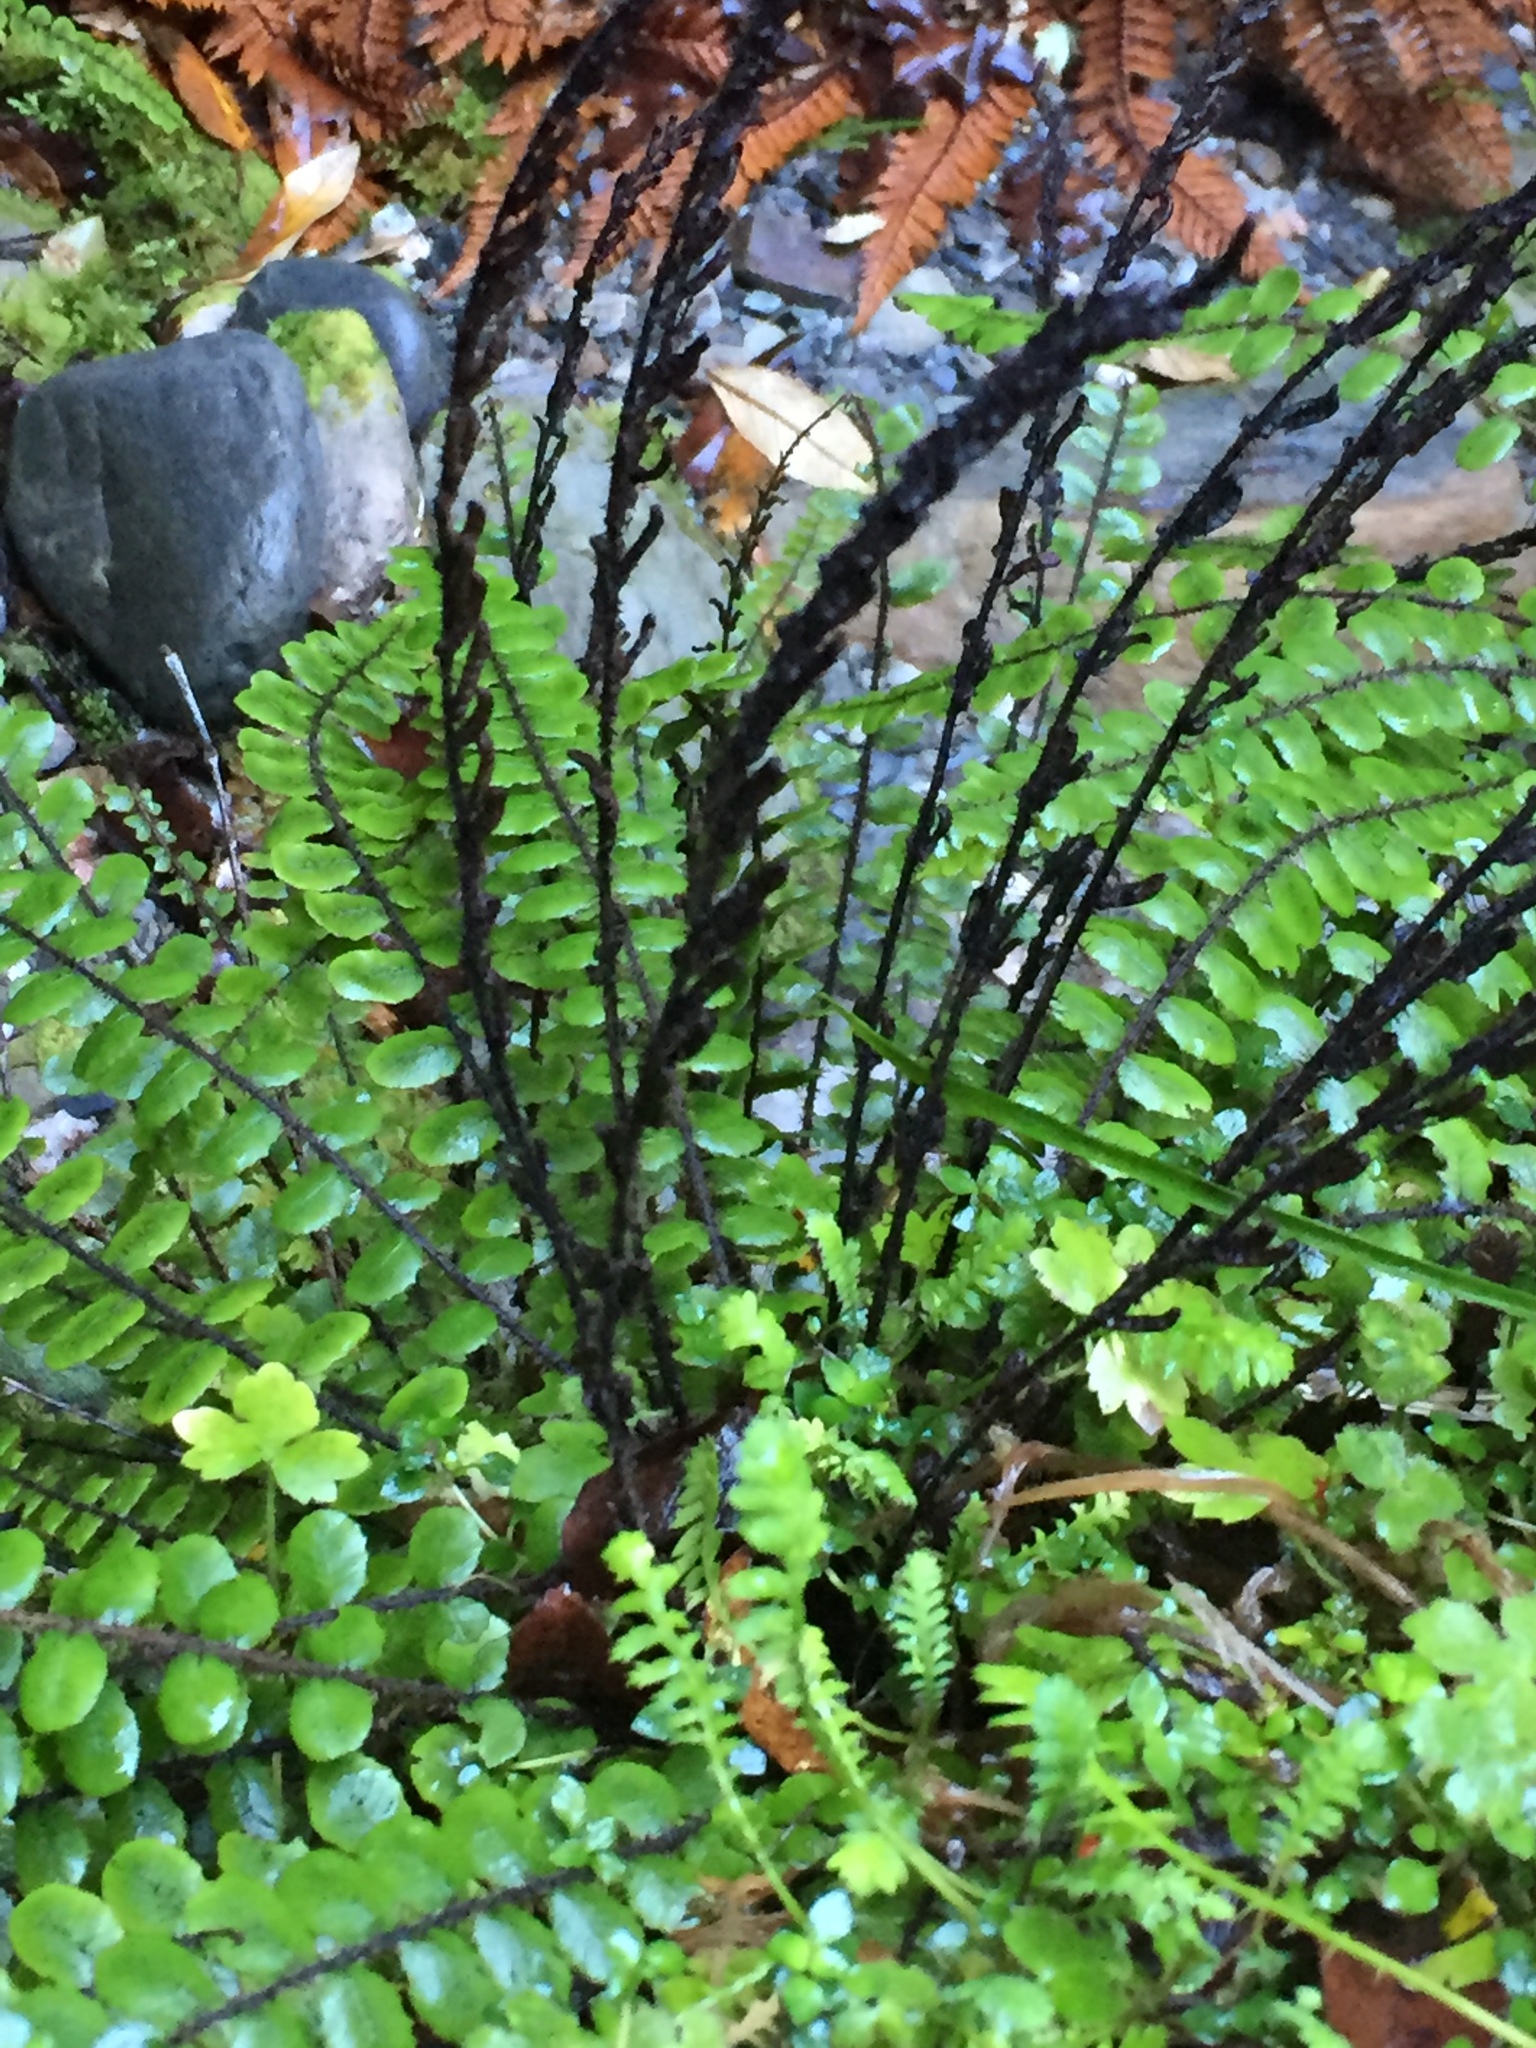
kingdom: Plantae
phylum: Tracheophyta
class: Polypodiopsida
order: Polypodiales
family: Blechnaceae
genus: Cranfillia
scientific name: Cranfillia fluviatilis
